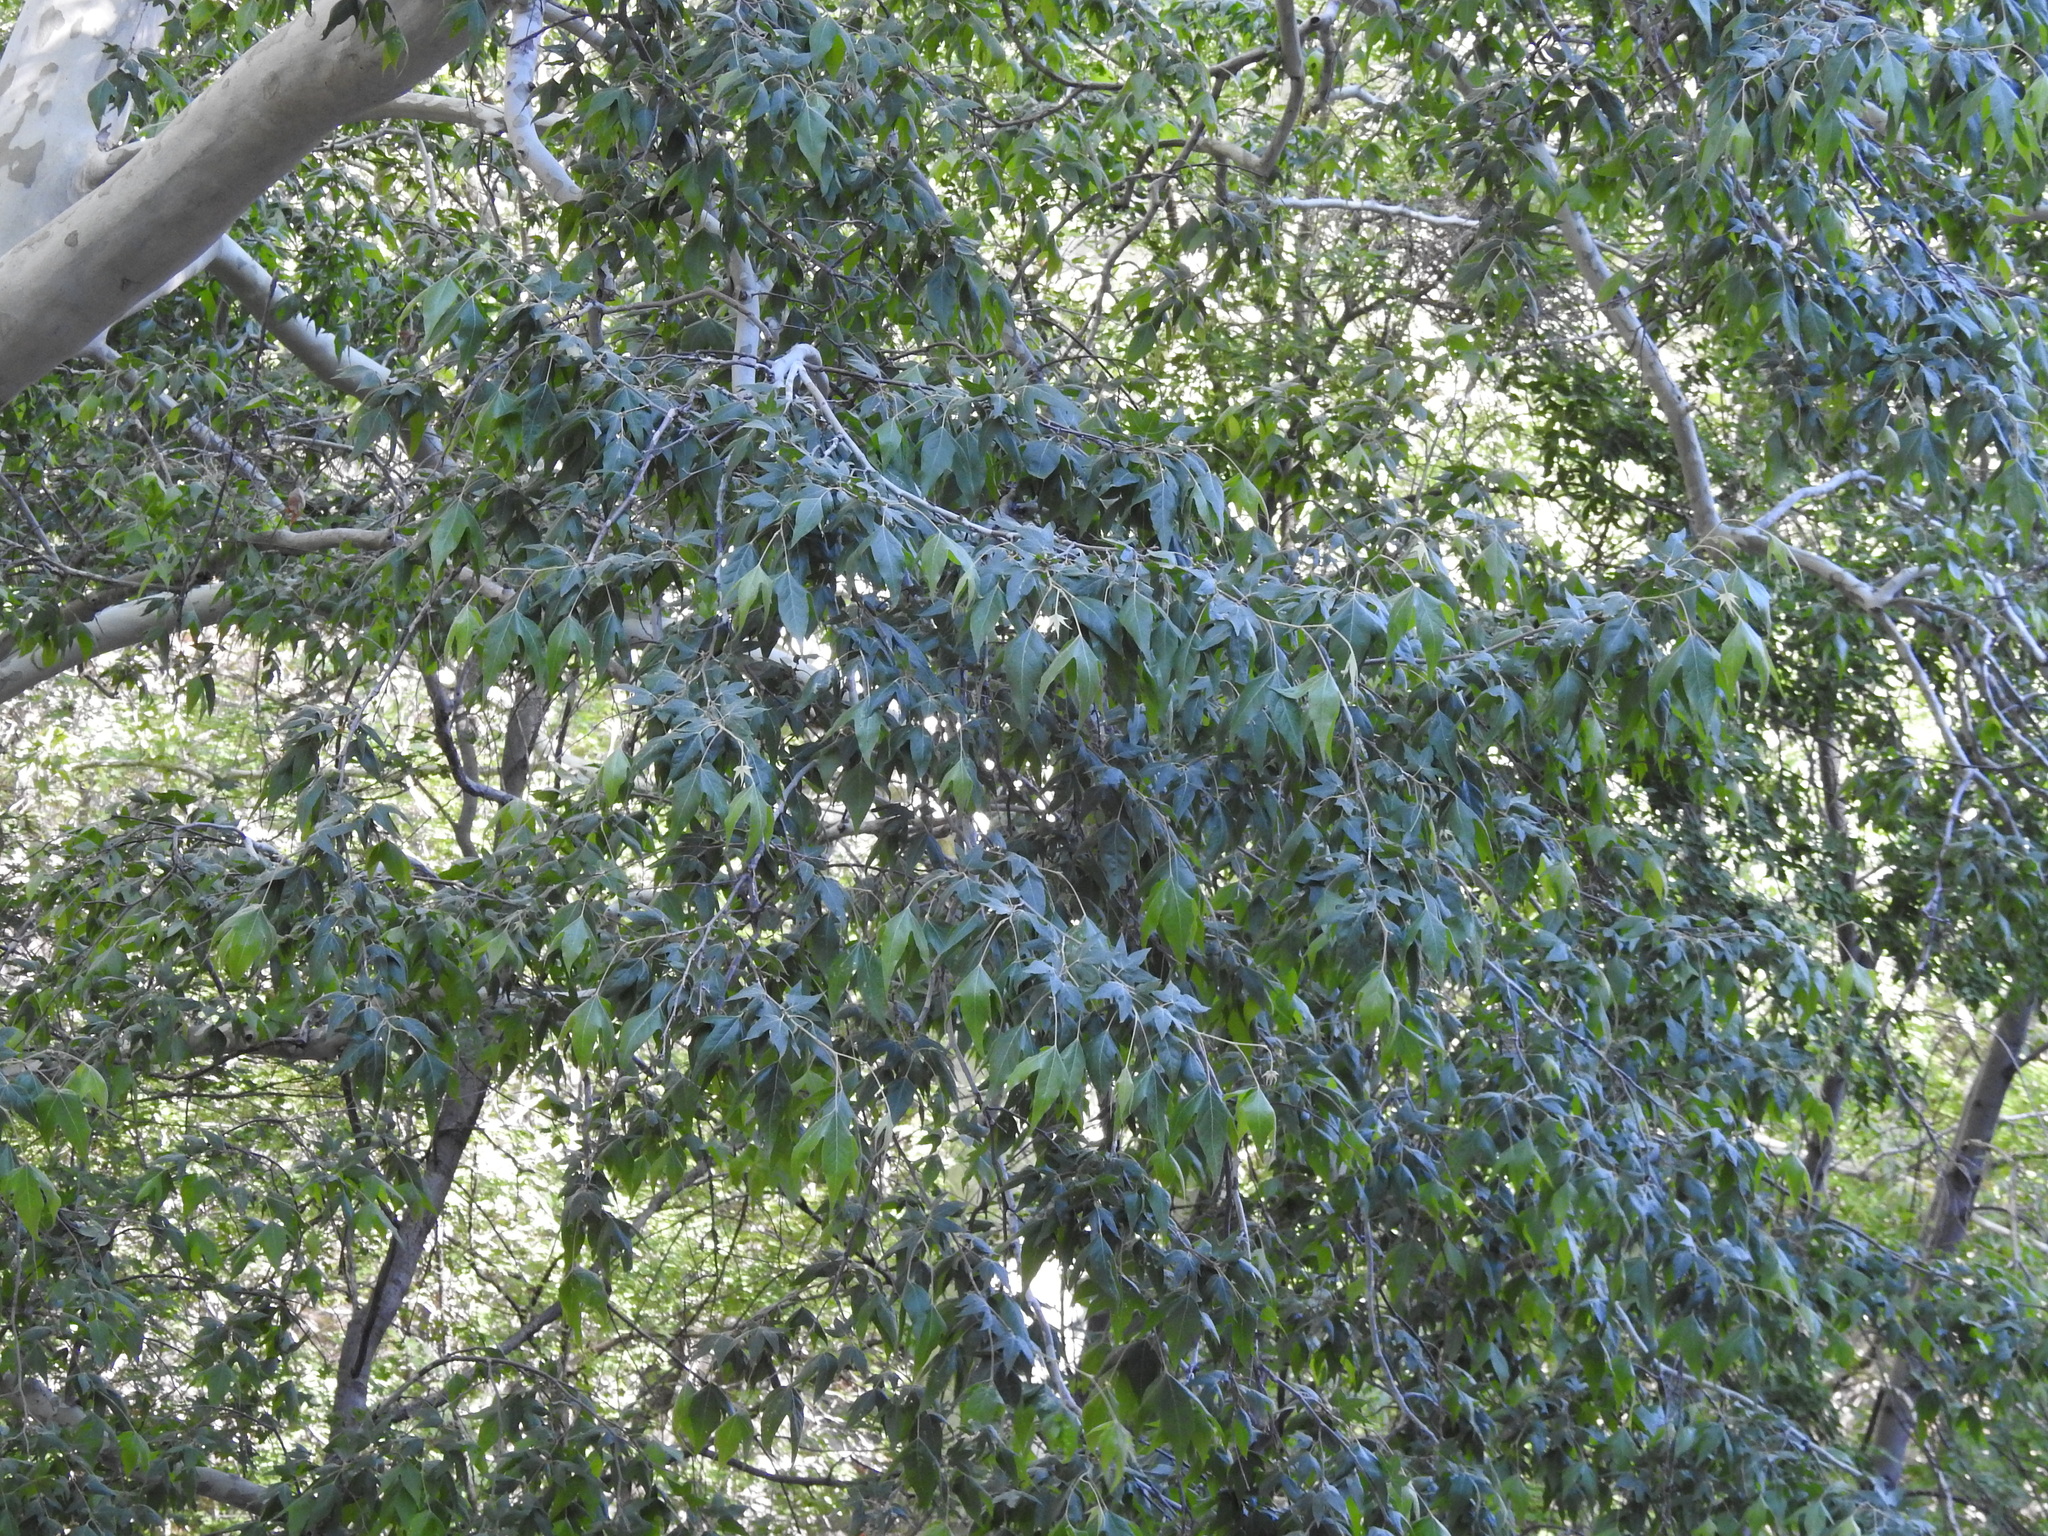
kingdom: Plantae
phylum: Tracheophyta
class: Magnoliopsida
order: Proteales
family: Platanaceae
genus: Platanus
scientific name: Platanus wrightii
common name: Arizona sycamore
